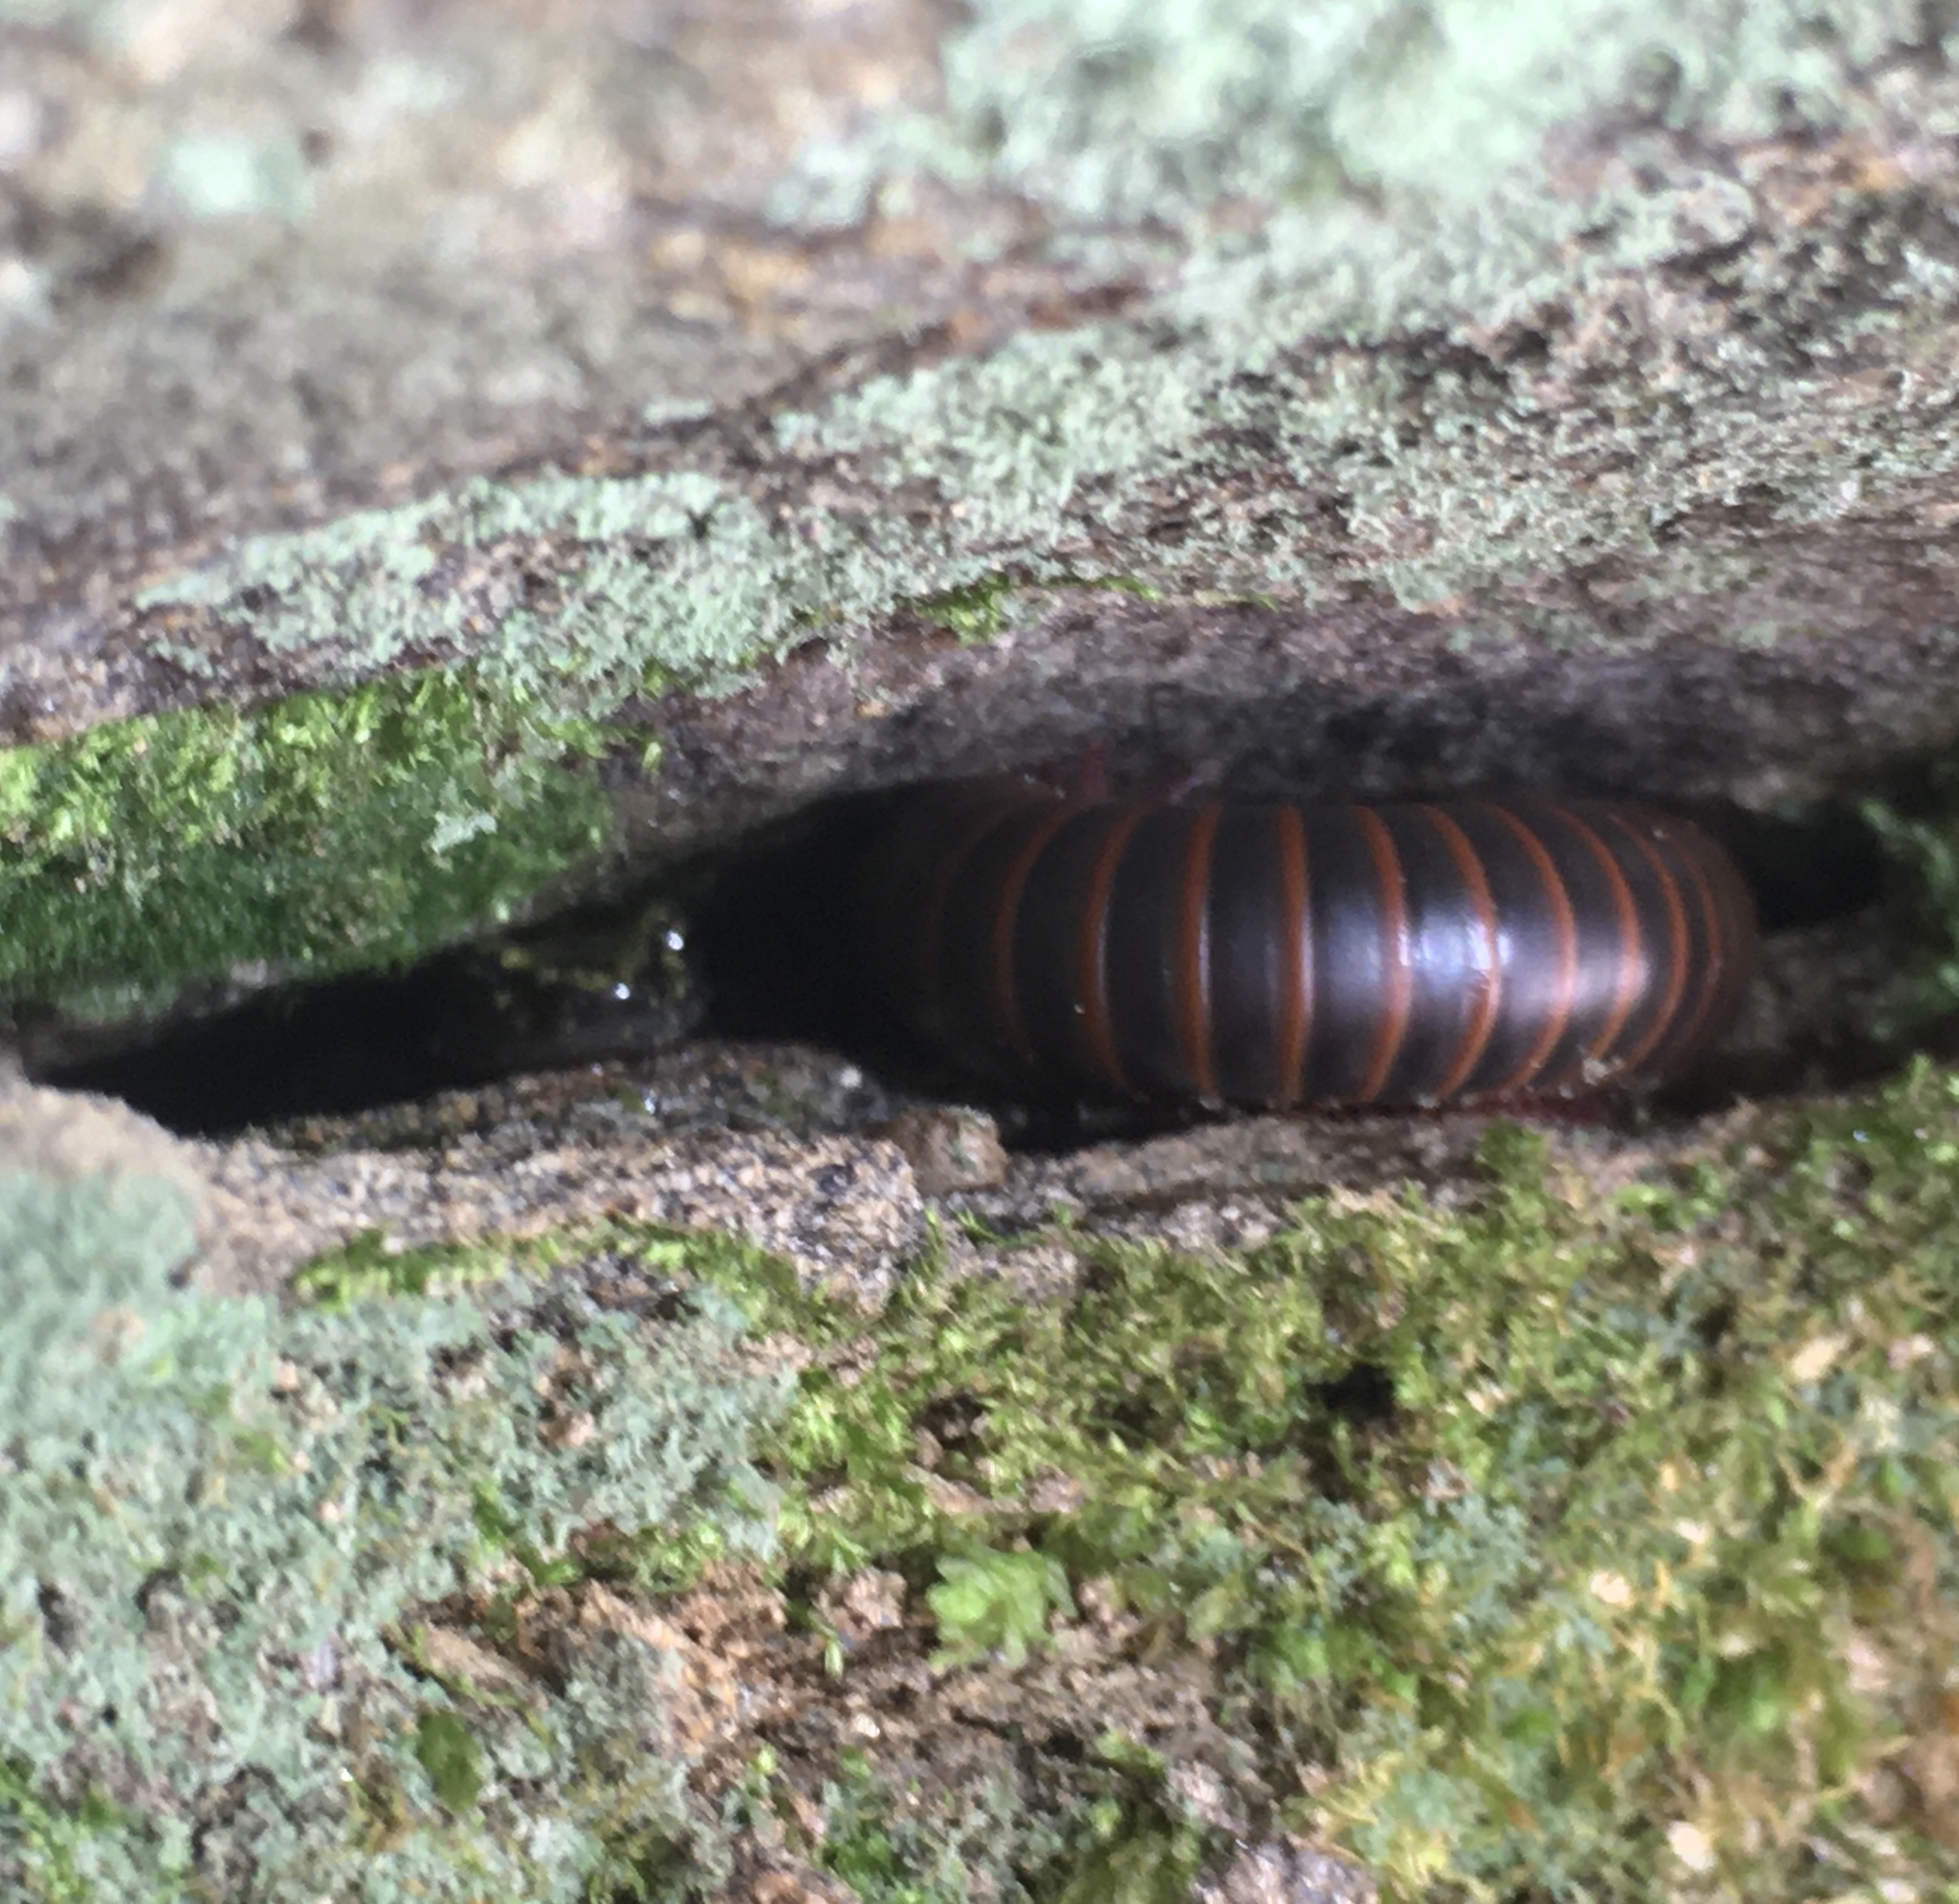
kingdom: Animalia
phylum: Chordata
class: Amphibia
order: Caudata
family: Plethodontidae
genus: Aneides
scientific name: Aneides aeneus
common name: Green salamander
